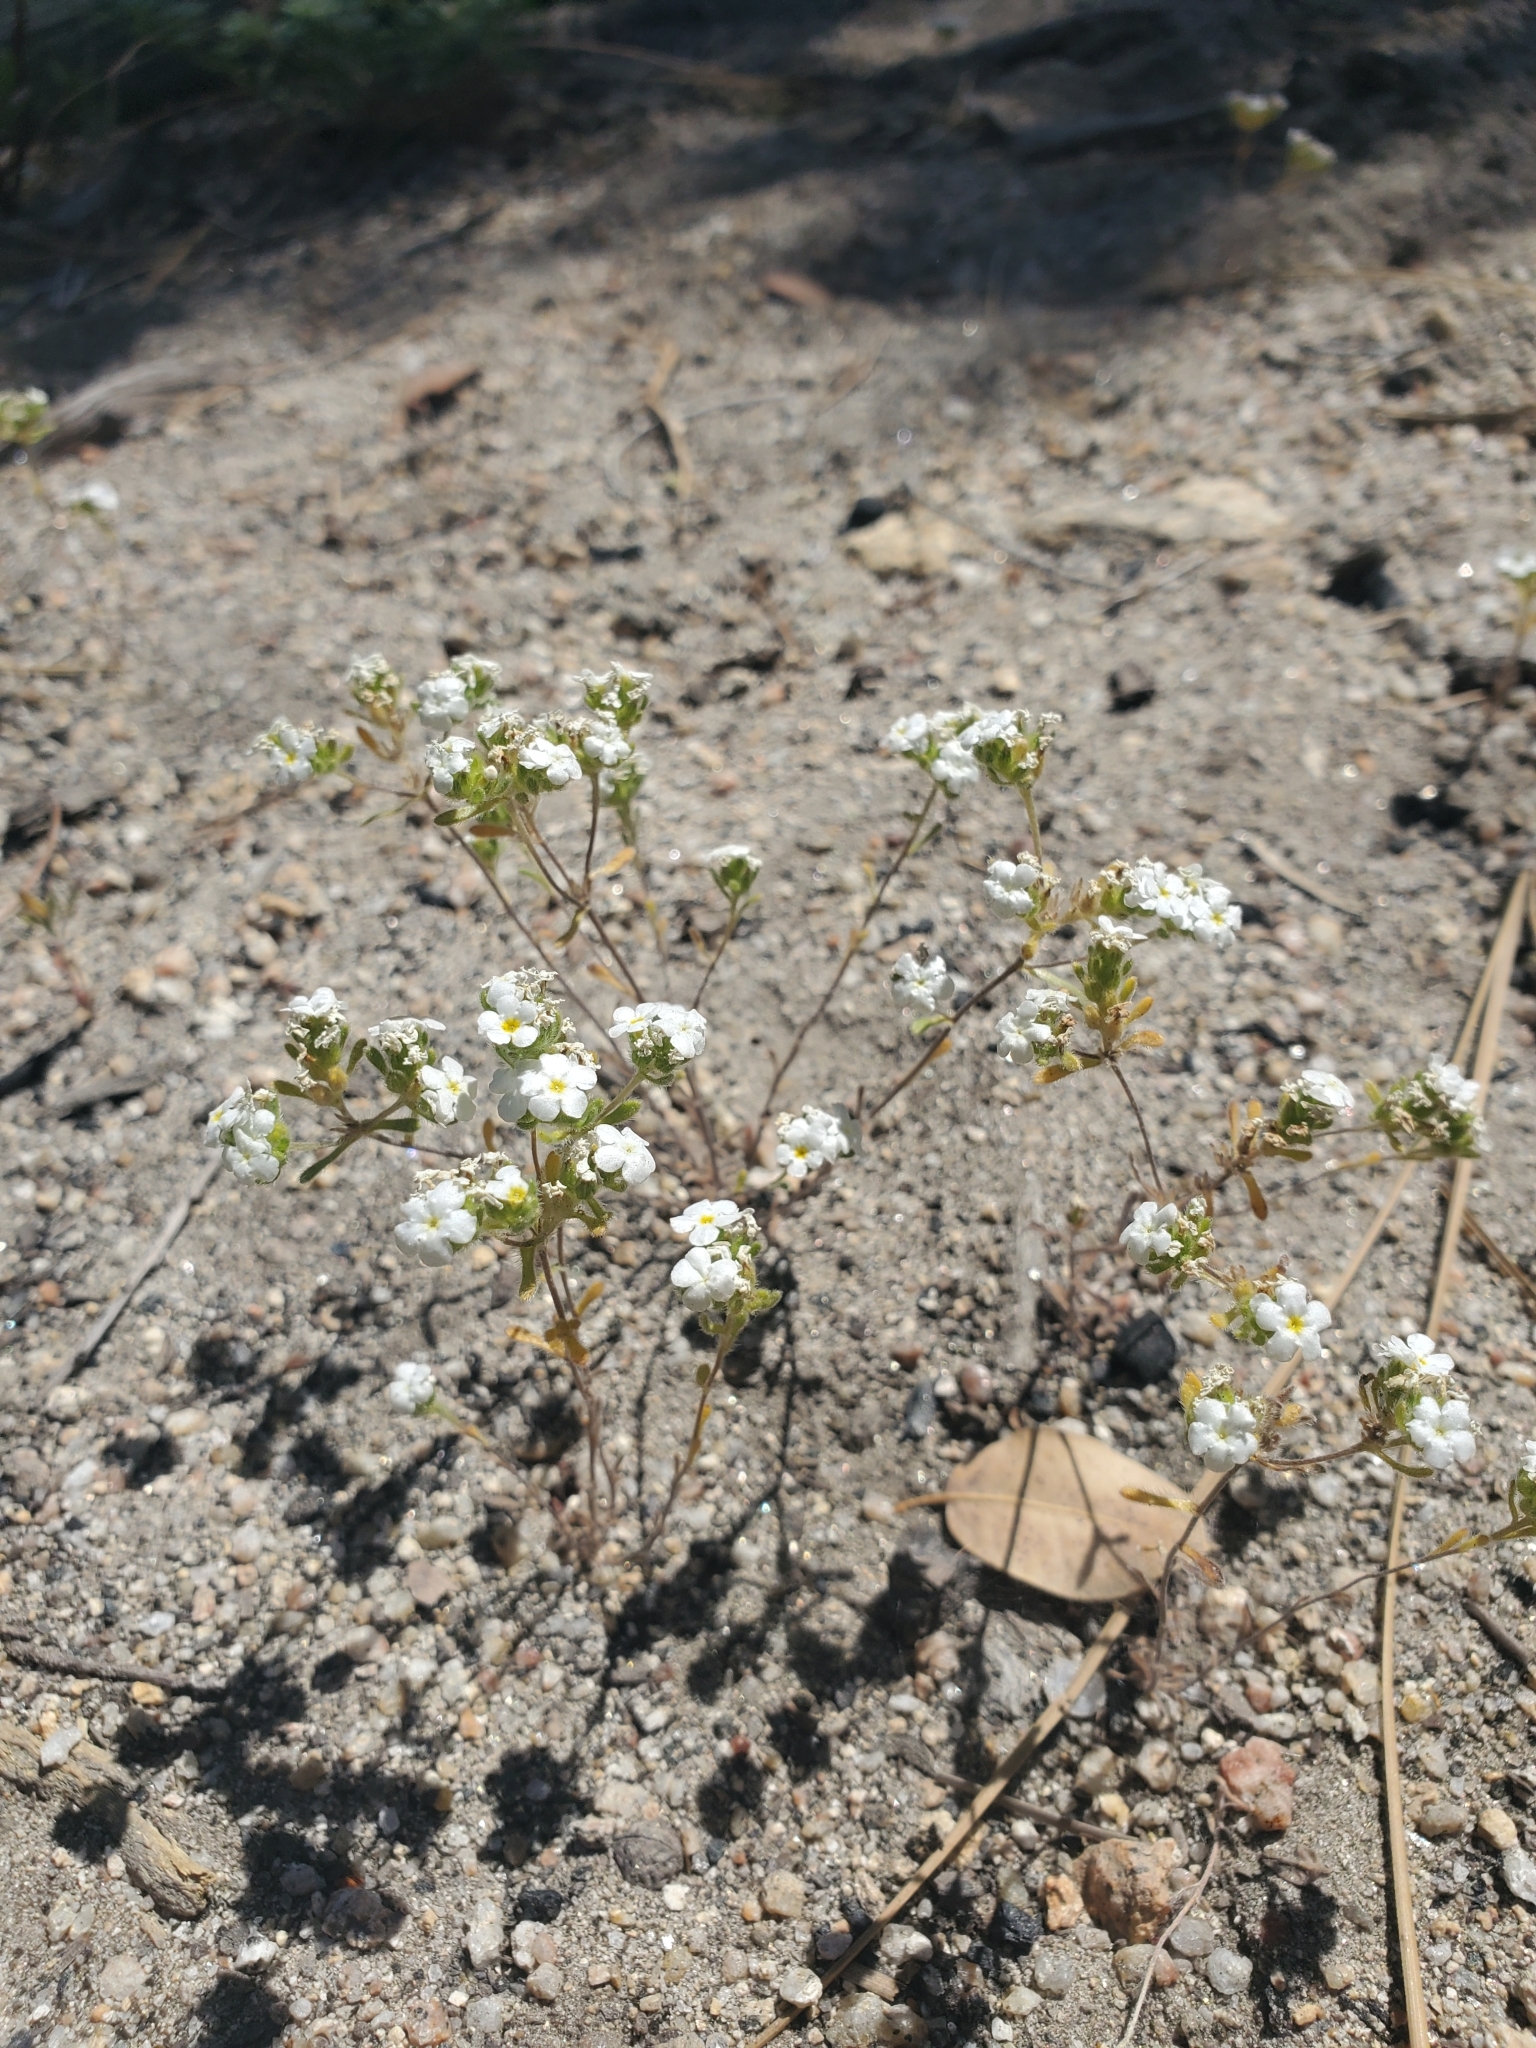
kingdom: Plantae
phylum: Tracheophyta
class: Magnoliopsida
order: Boraginales
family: Boraginaceae
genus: Eremocarya
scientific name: Eremocarya lepida
